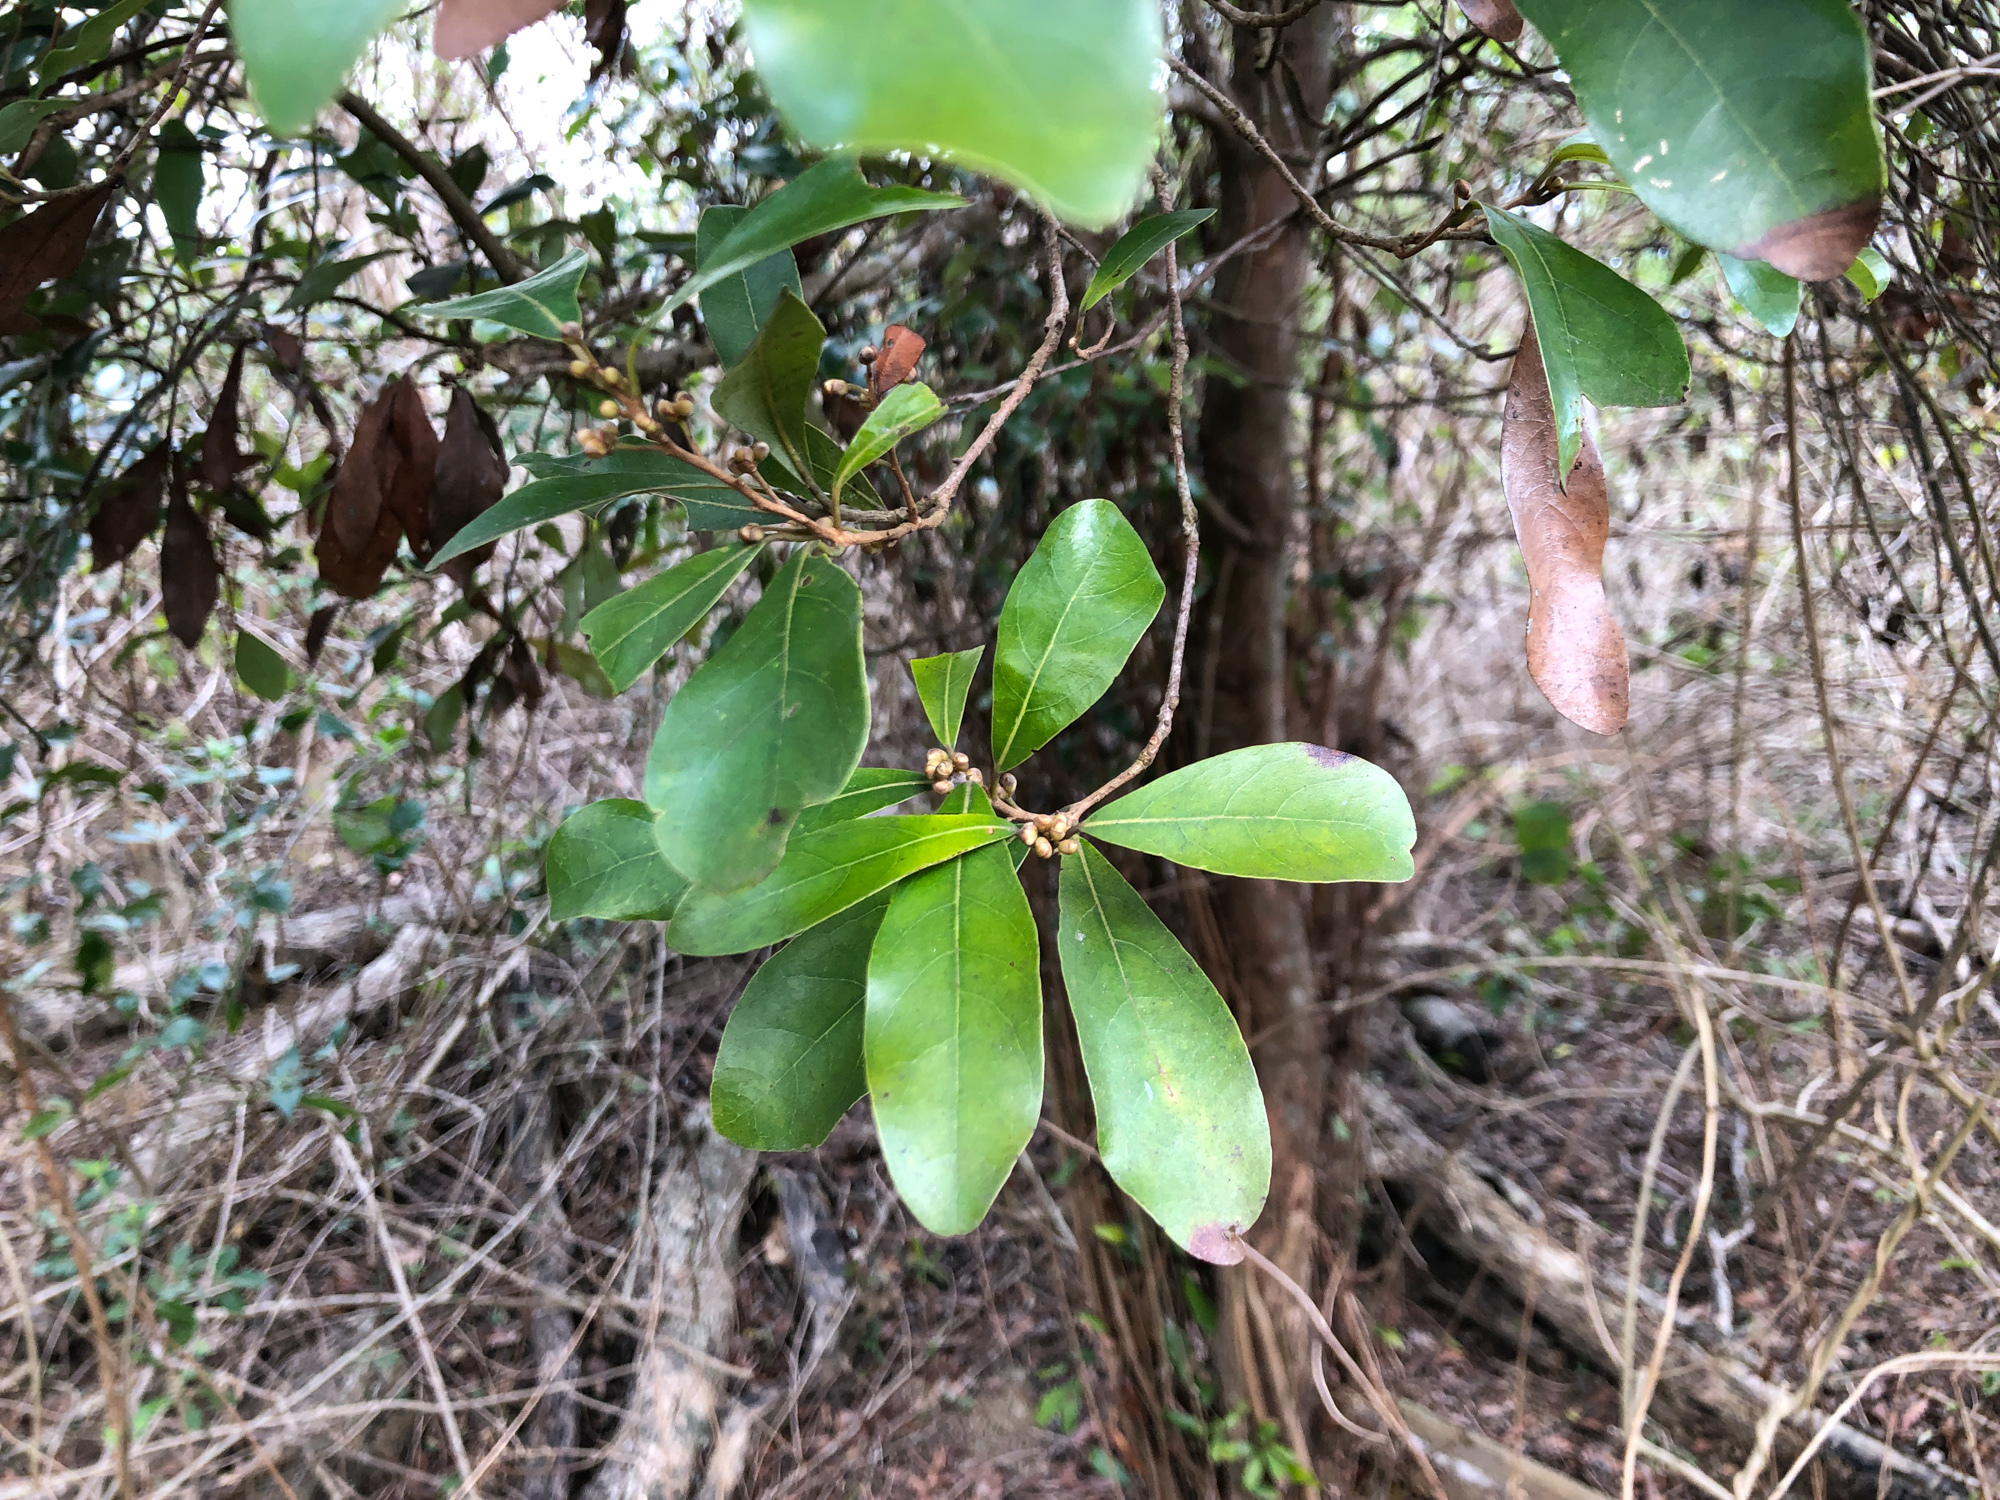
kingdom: Plantae
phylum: Tracheophyta
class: Magnoliopsida
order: Laurales
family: Lauraceae
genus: Litsea
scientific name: Litsea hypophaea
